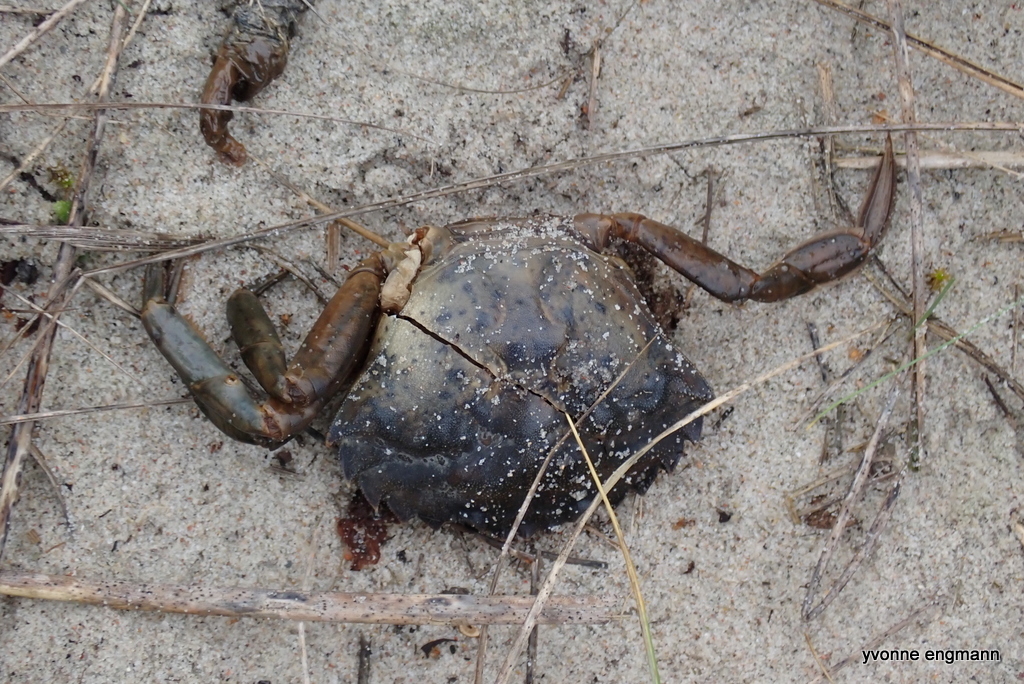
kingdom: Animalia
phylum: Arthropoda
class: Malacostraca
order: Decapoda
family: Carcinidae
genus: Carcinus
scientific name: Carcinus maenas
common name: European green crab
